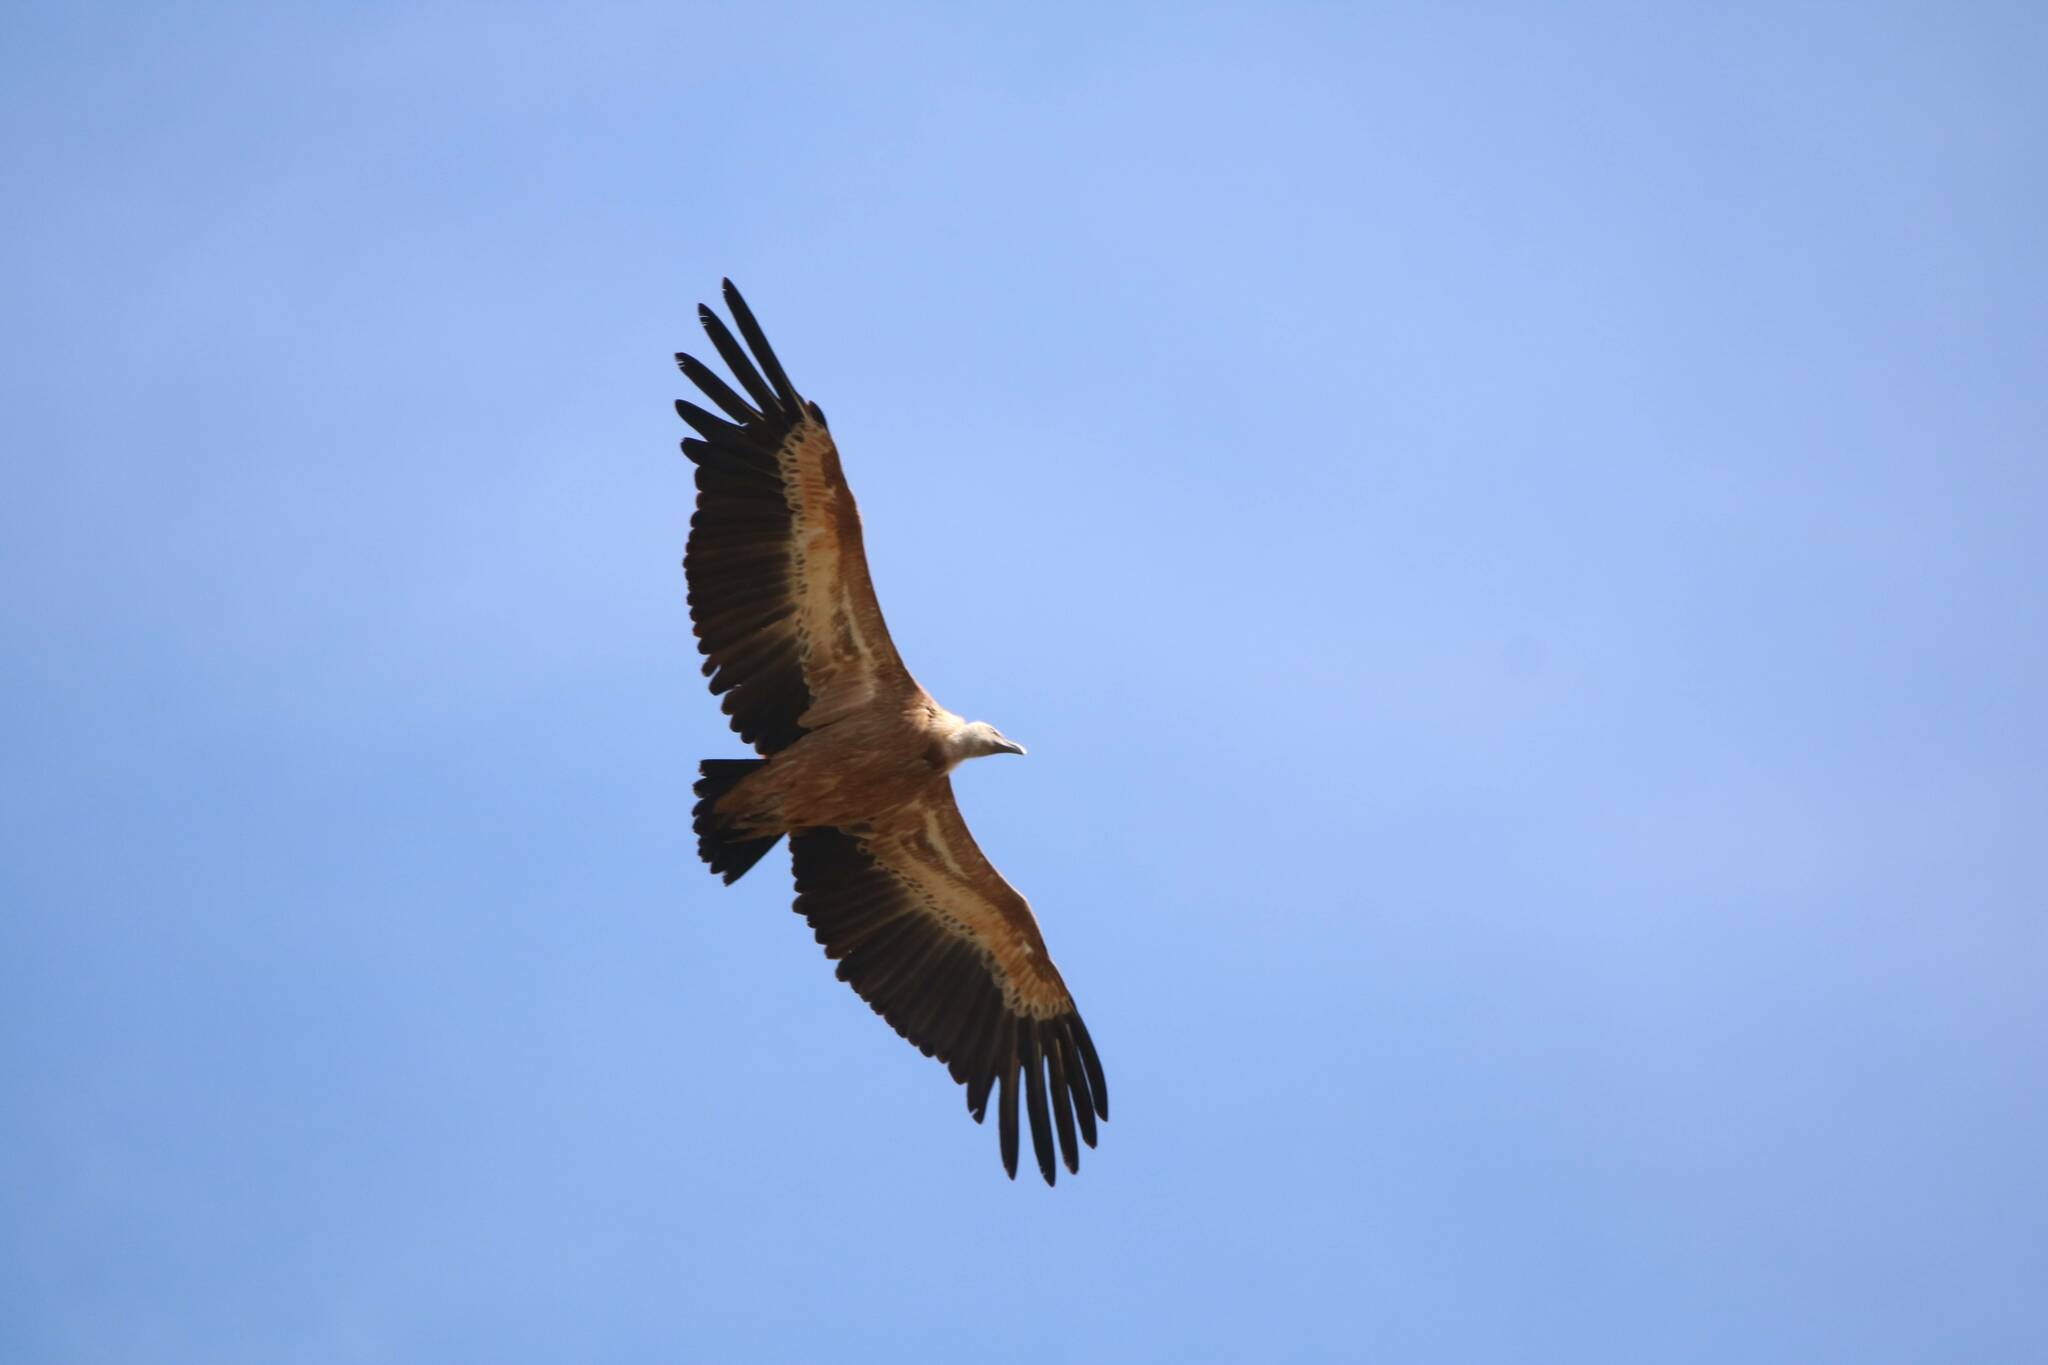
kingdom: Animalia
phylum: Chordata
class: Aves
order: Accipitriformes
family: Accipitridae
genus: Gyps
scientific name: Gyps fulvus
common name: Griffon vulture
